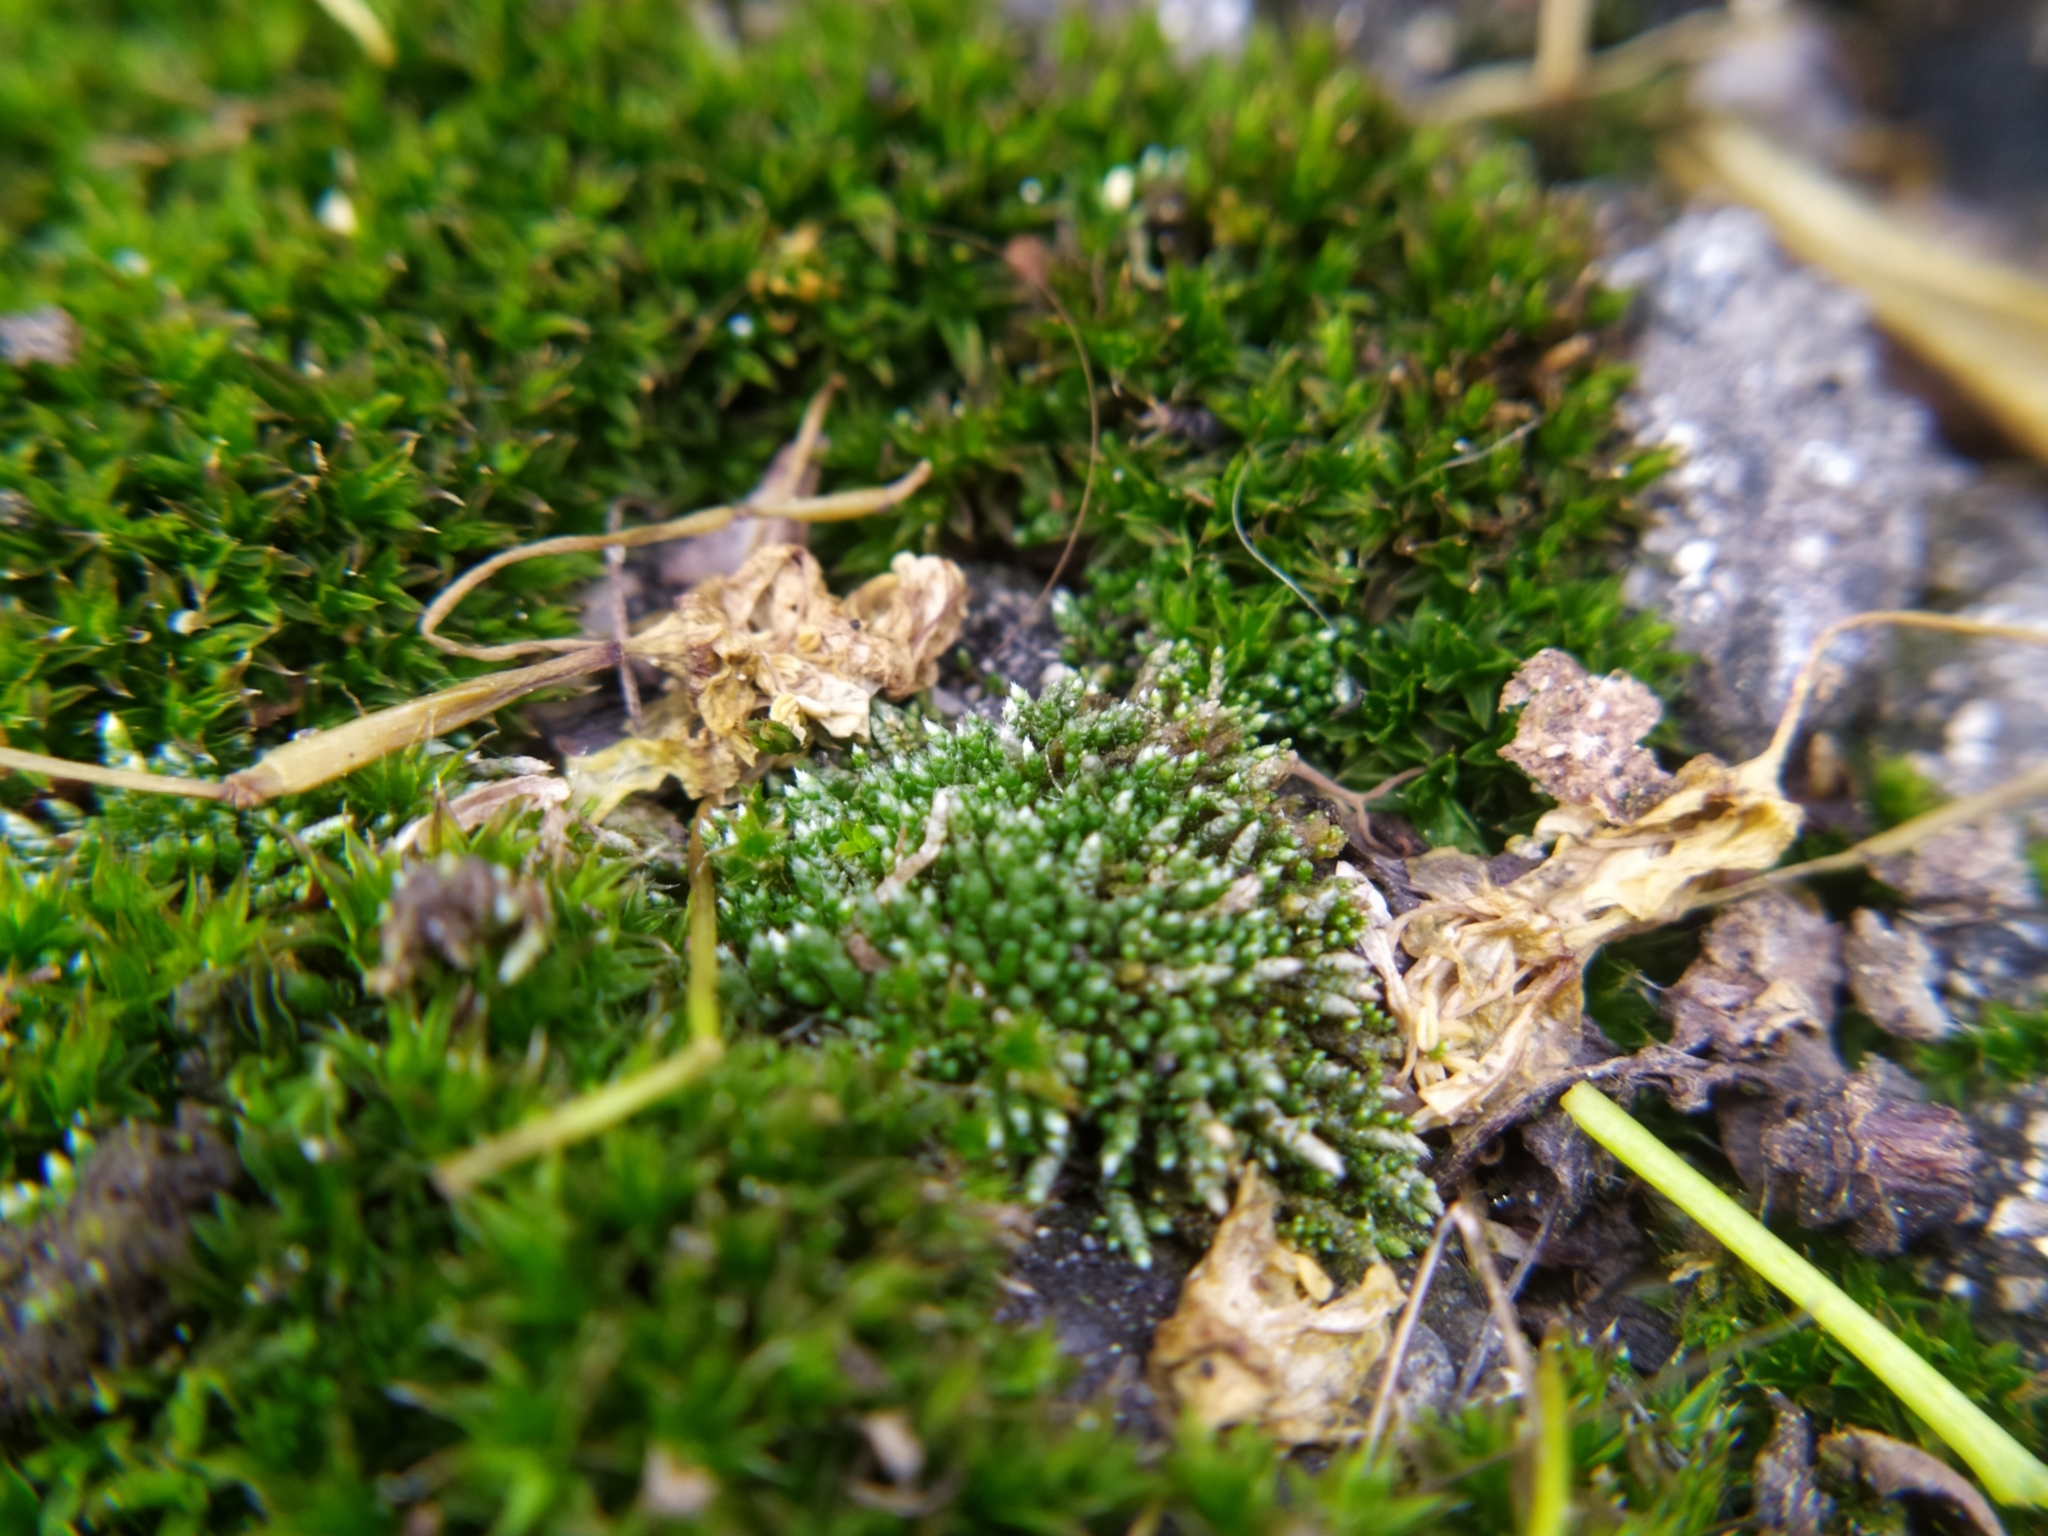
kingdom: Plantae
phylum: Bryophyta
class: Bryopsida
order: Bryales
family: Bryaceae
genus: Bryum
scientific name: Bryum argenteum
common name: Silver-moss
